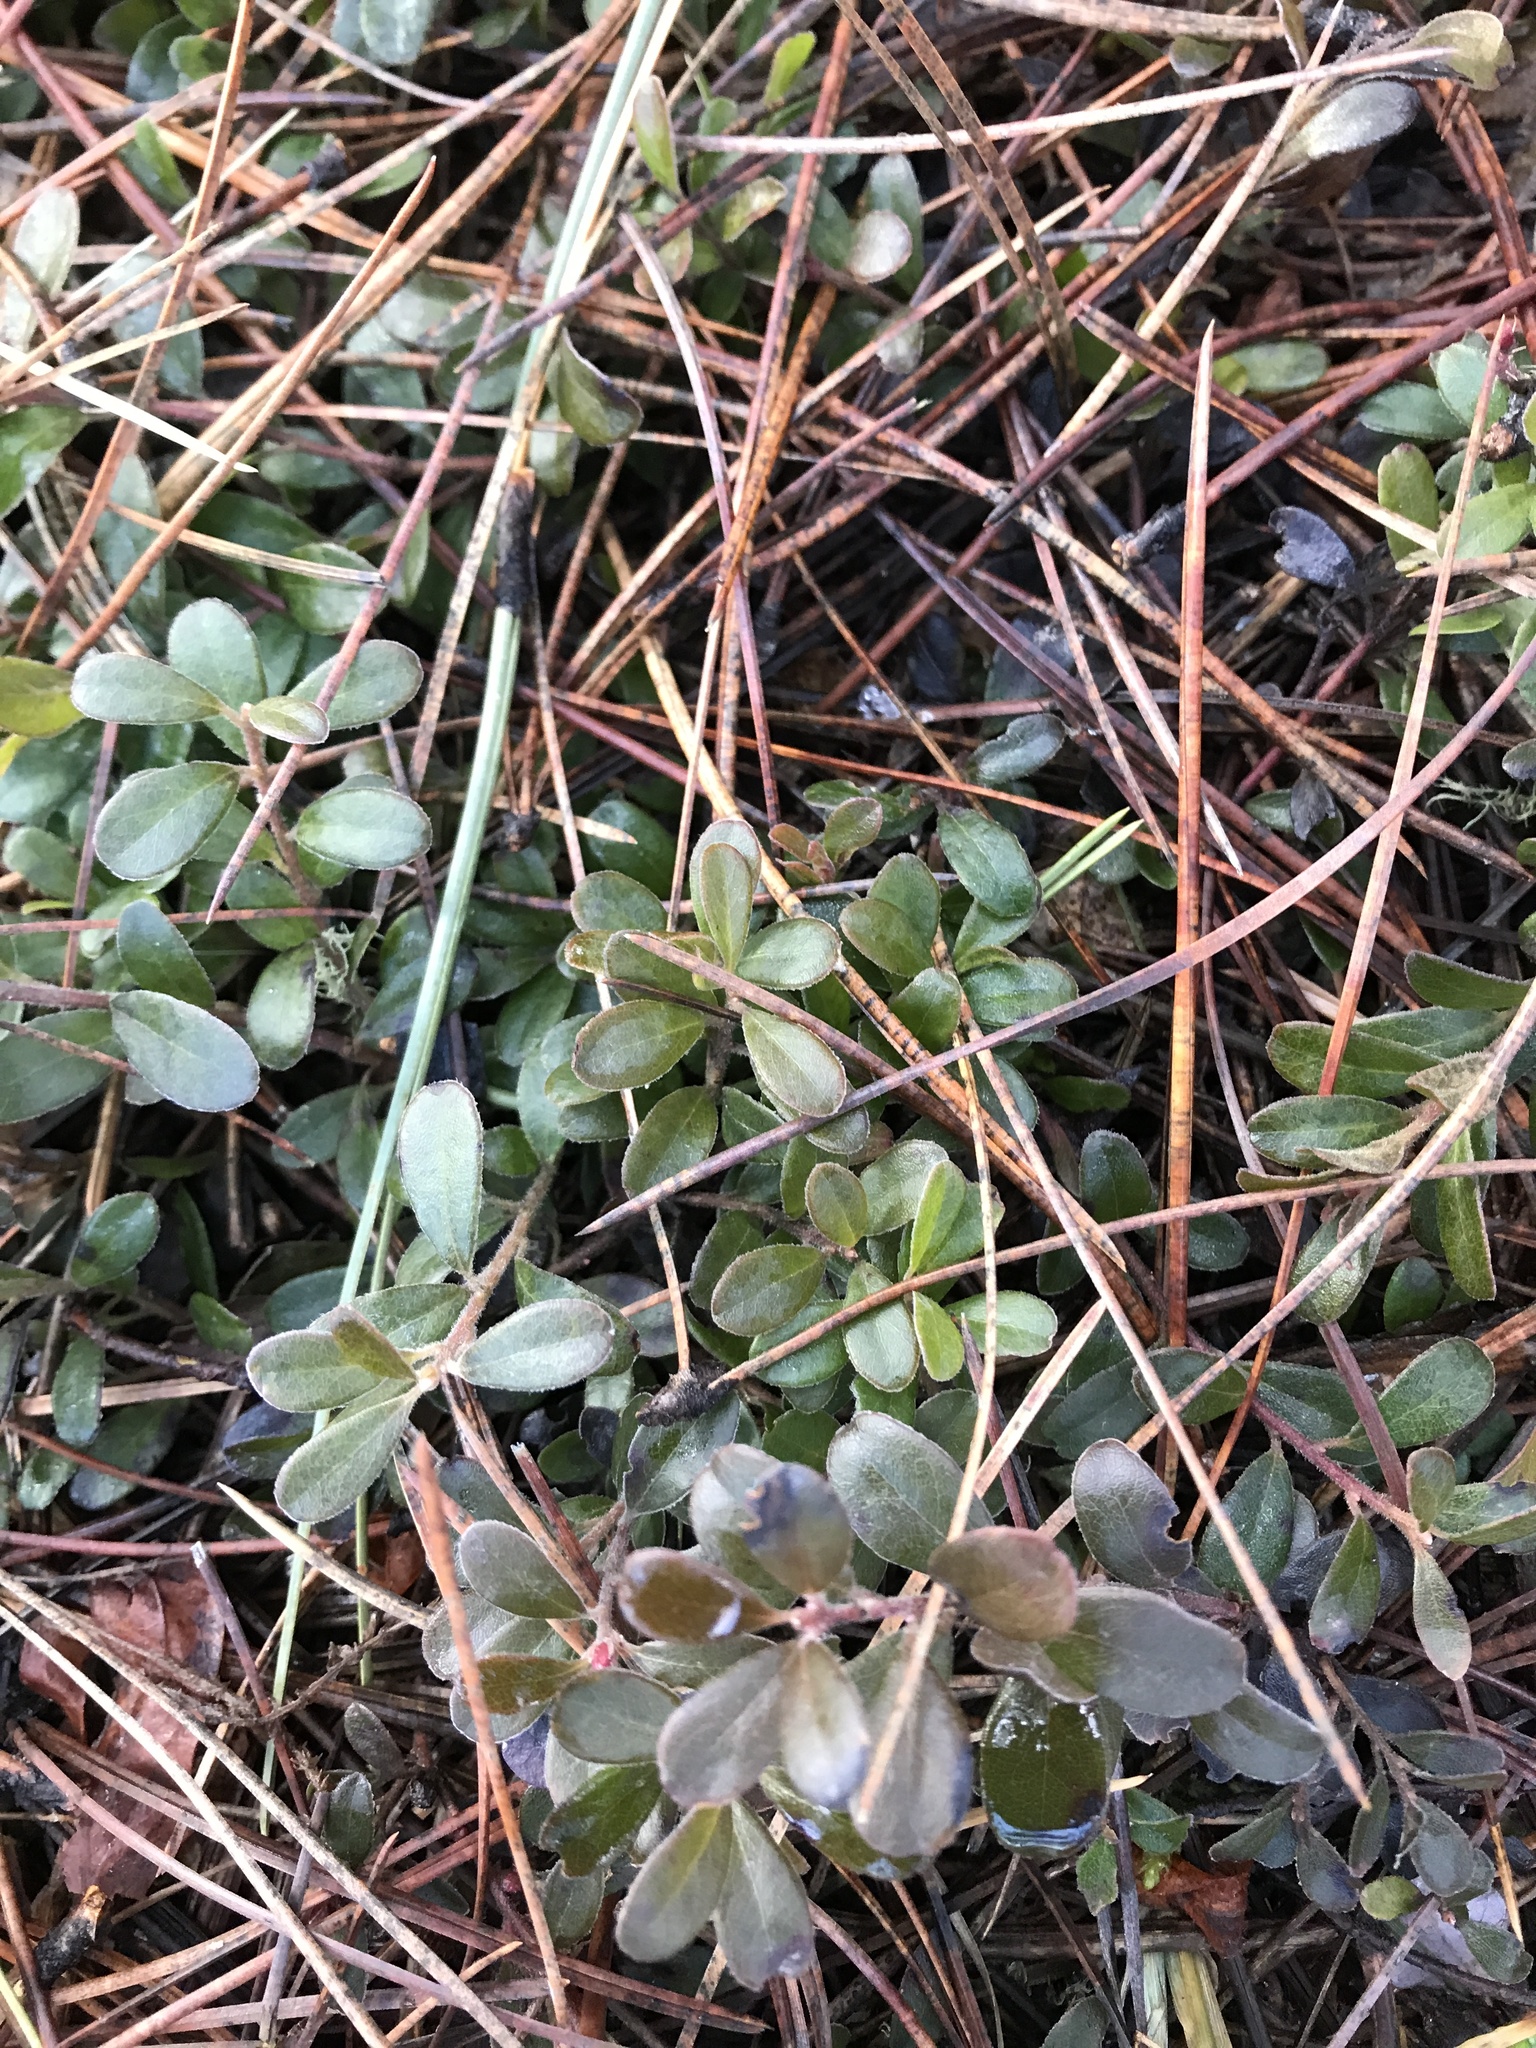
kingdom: Plantae
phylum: Tracheophyta
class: Magnoliopsida
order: Ericales
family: Ericaceae
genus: Arctostaphylos
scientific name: Arctostaphylos uva-ursi
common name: Bearberry
